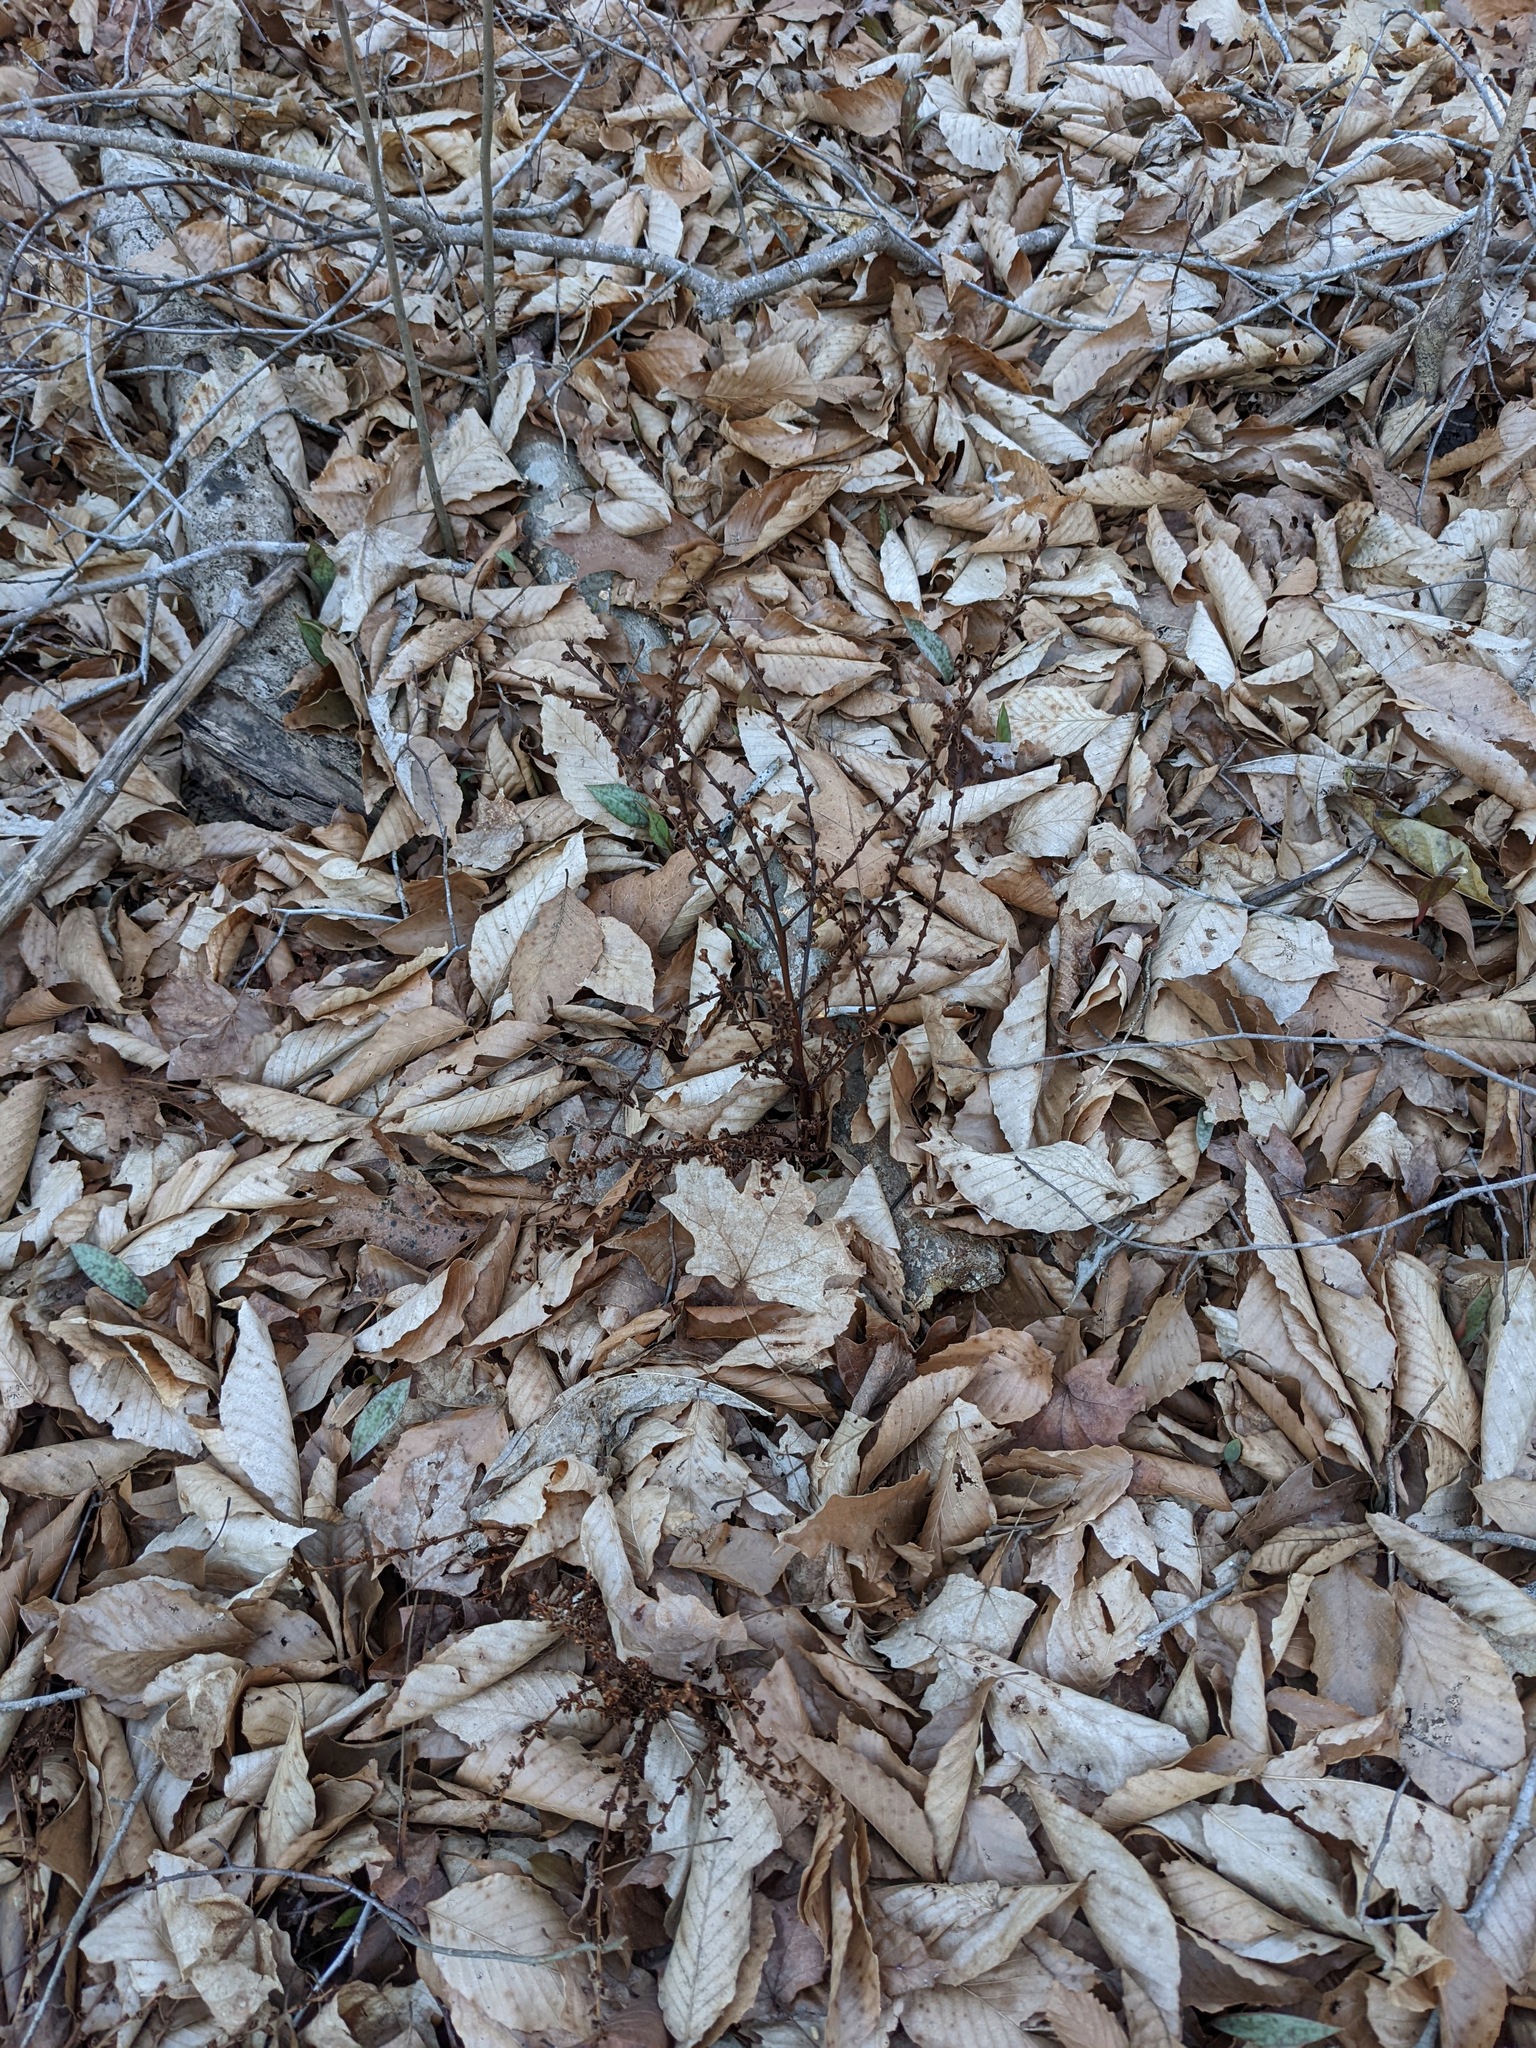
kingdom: Plantae
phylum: Tracheophyta
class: Magnoliopsida
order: Lamiales
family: Orobanchaceae
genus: Epifagus
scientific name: Epifagus virginiana
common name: Beechdrops
